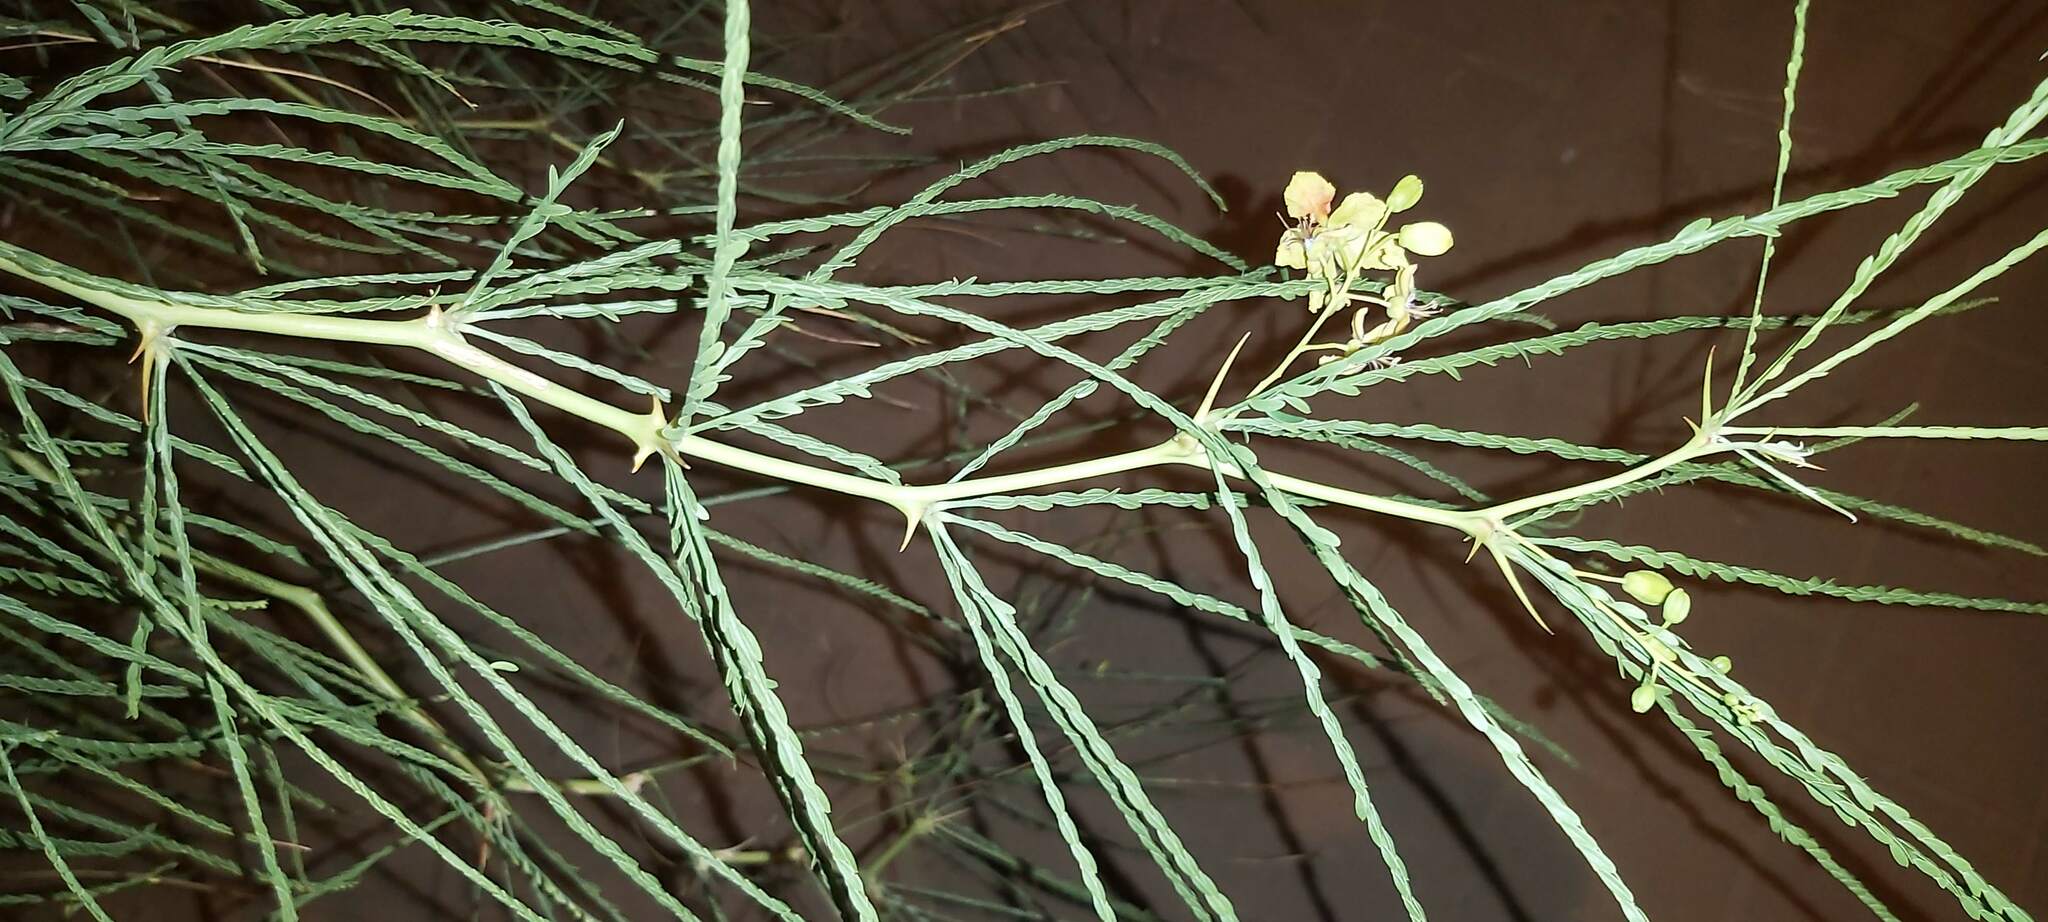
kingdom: Plantae
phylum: Tracheophyta
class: Magnoliopsida
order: Fabales
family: Fabaceae
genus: Parkinsonia
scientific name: Parkinsonia aculeata
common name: Jerusalem thorn
